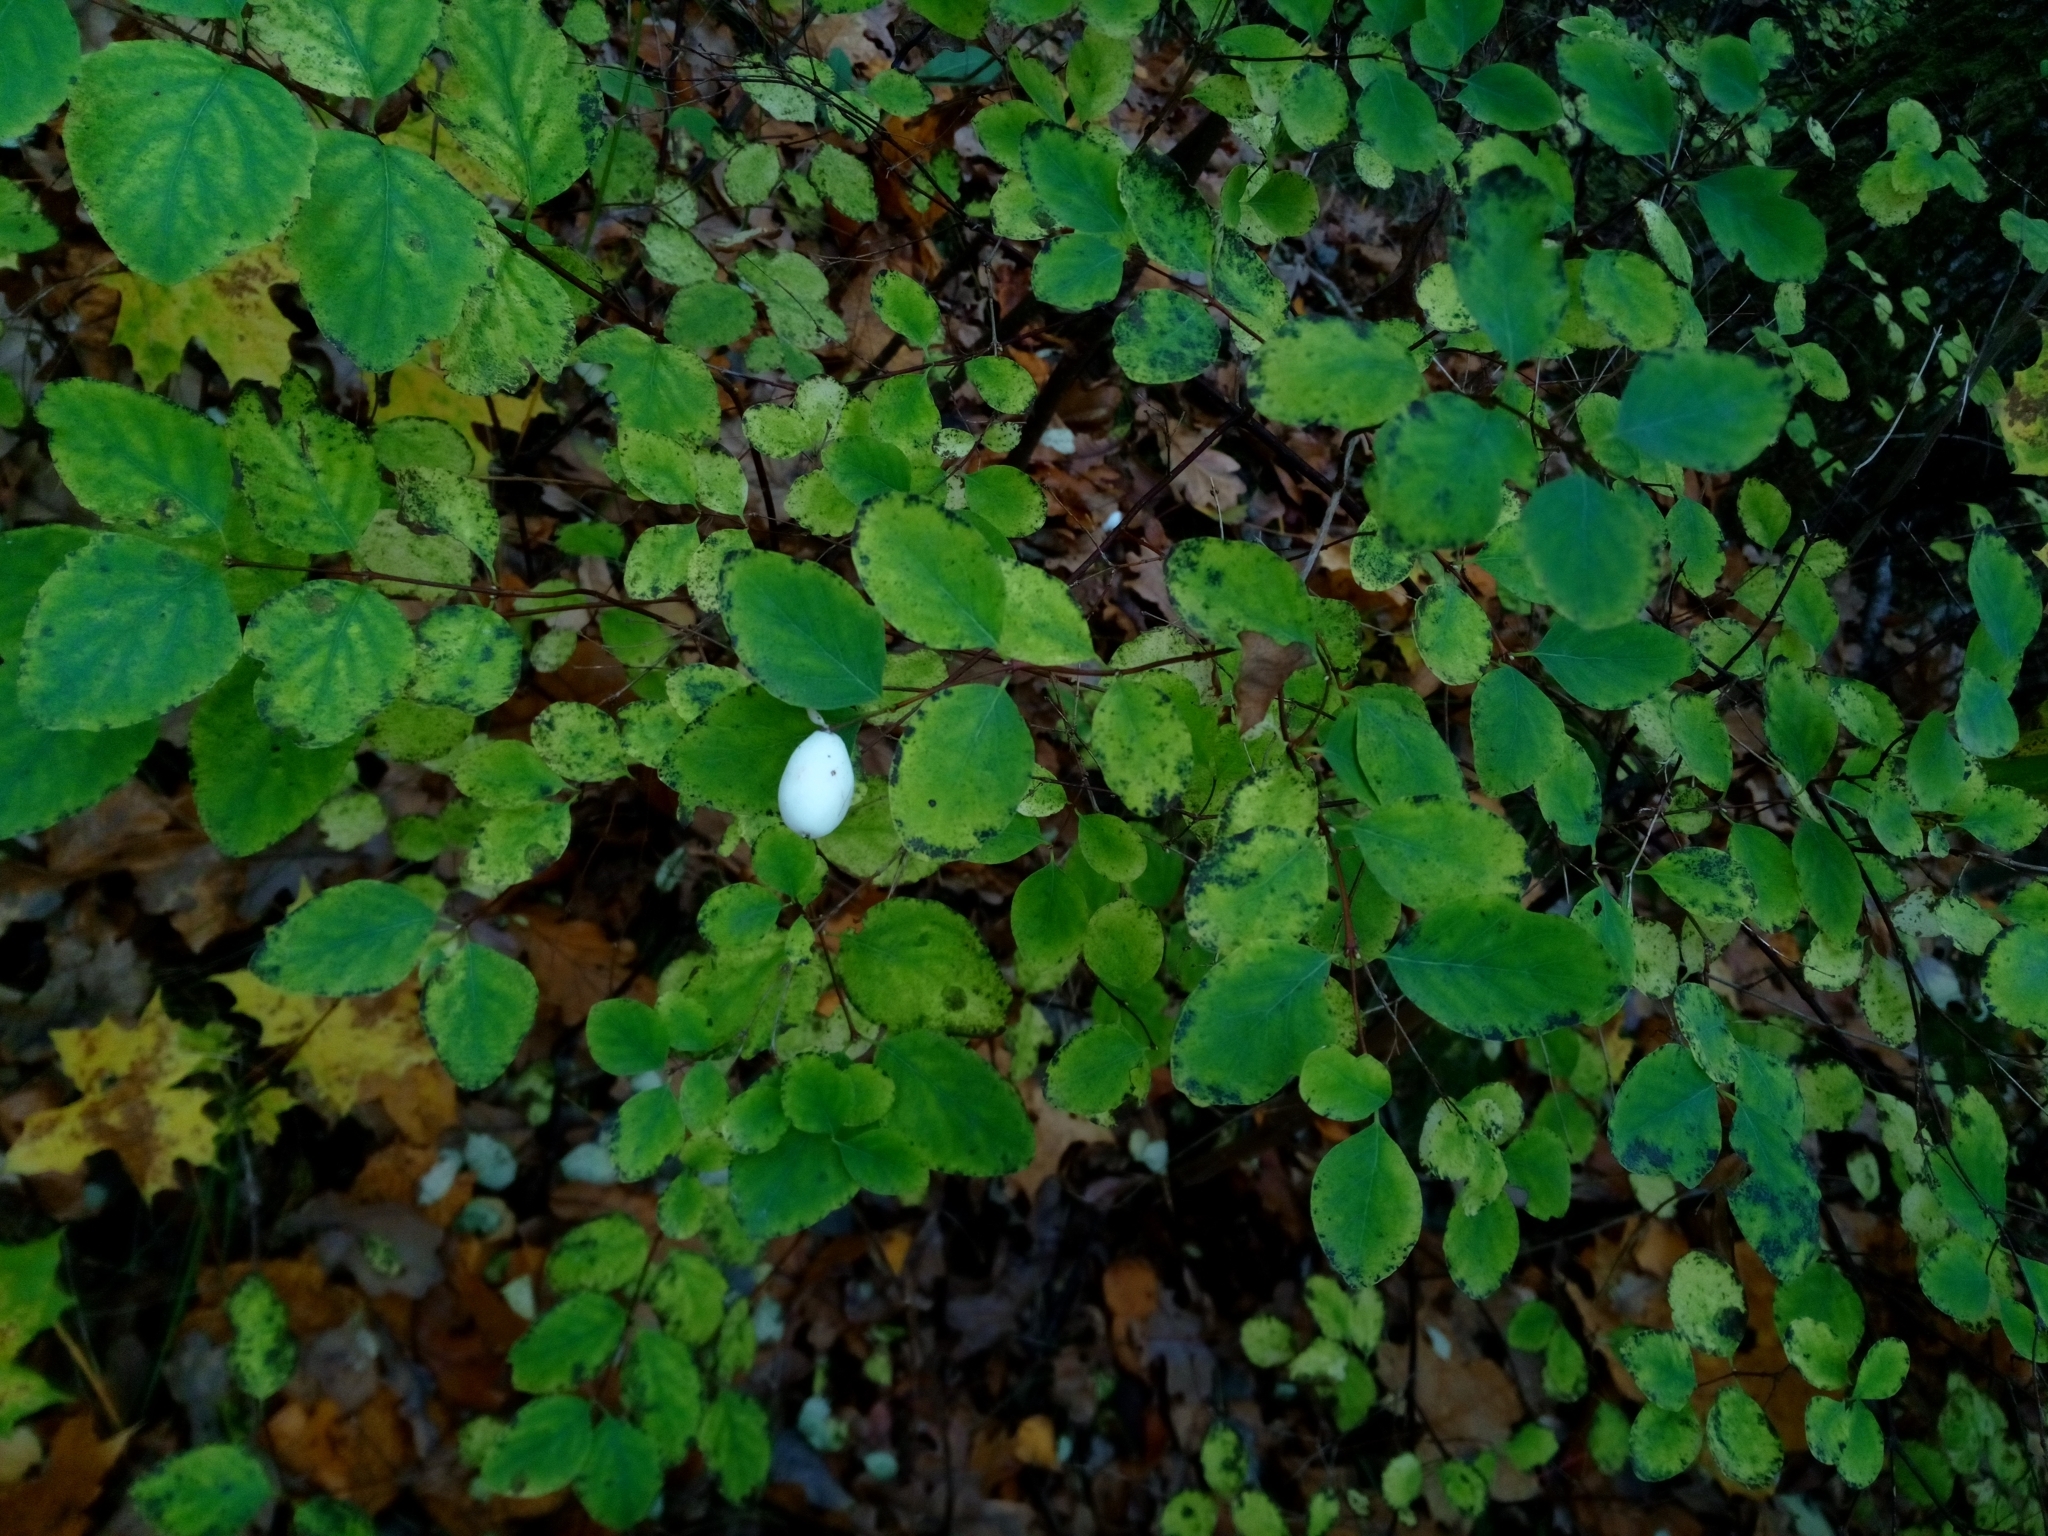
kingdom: Plantae
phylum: Tracheophyta
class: Magnoliopsida
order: Dipsacales
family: Caprifoliaceae
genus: Symphoricarpos
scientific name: Symphoricarpos albus
